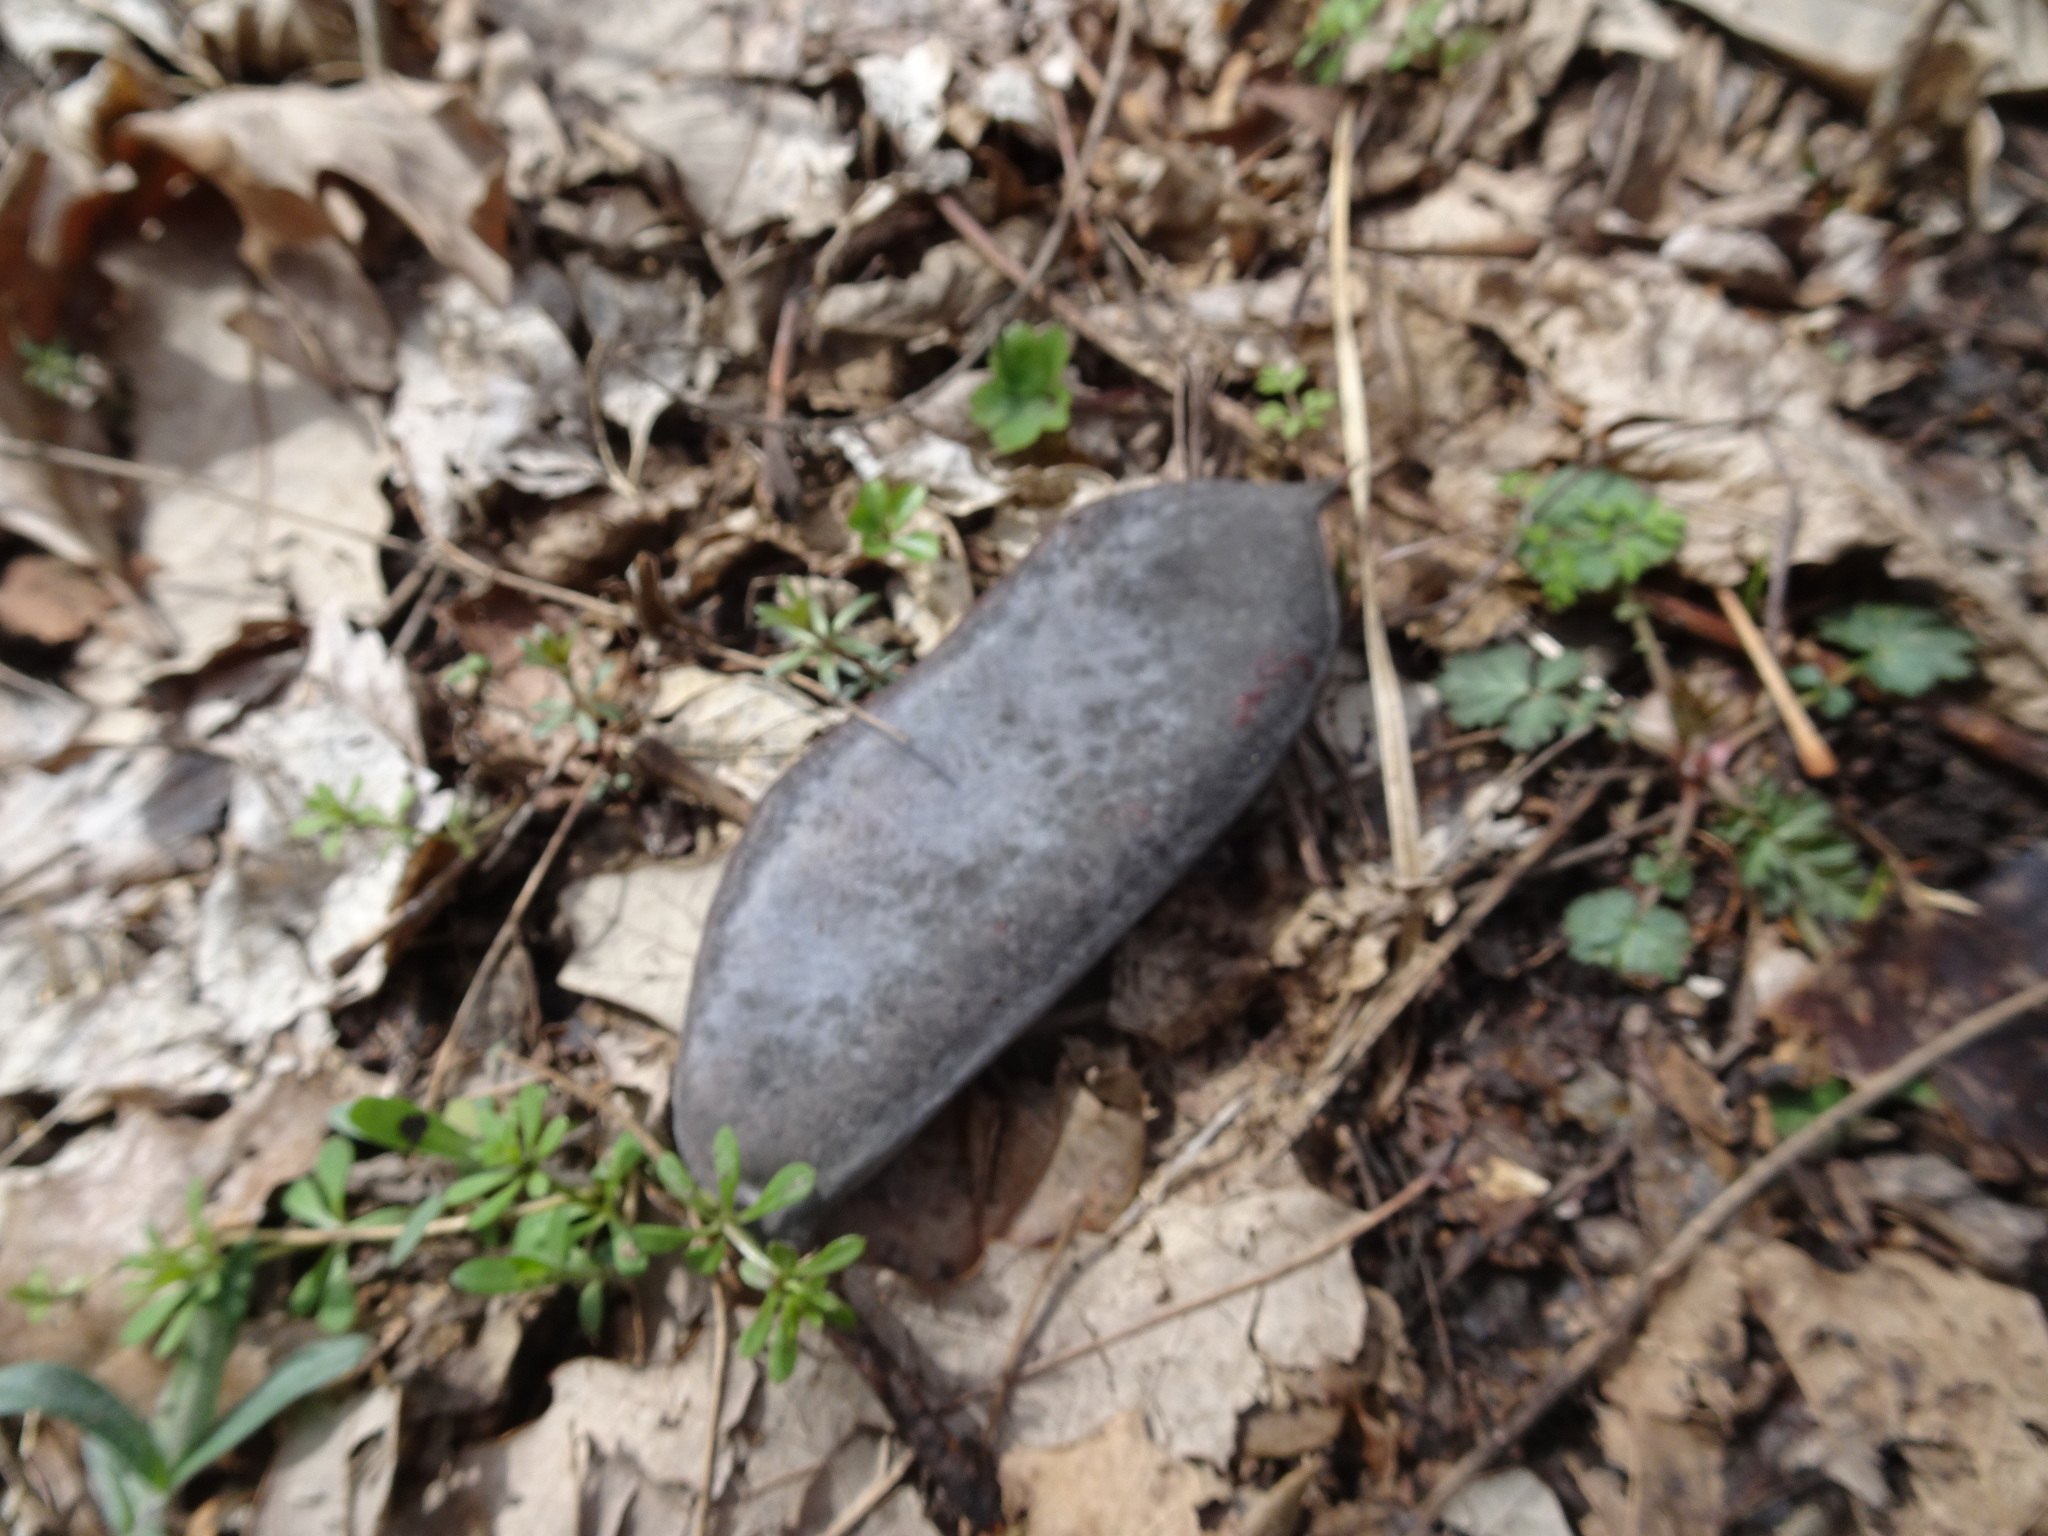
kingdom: Plantae
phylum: Tracheophyta
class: Magnoliopsida
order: Fabales
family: Fabaceae
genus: Gymnocladus
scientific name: Gymnocladus dioicus
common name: Kentucky coffee-tree
